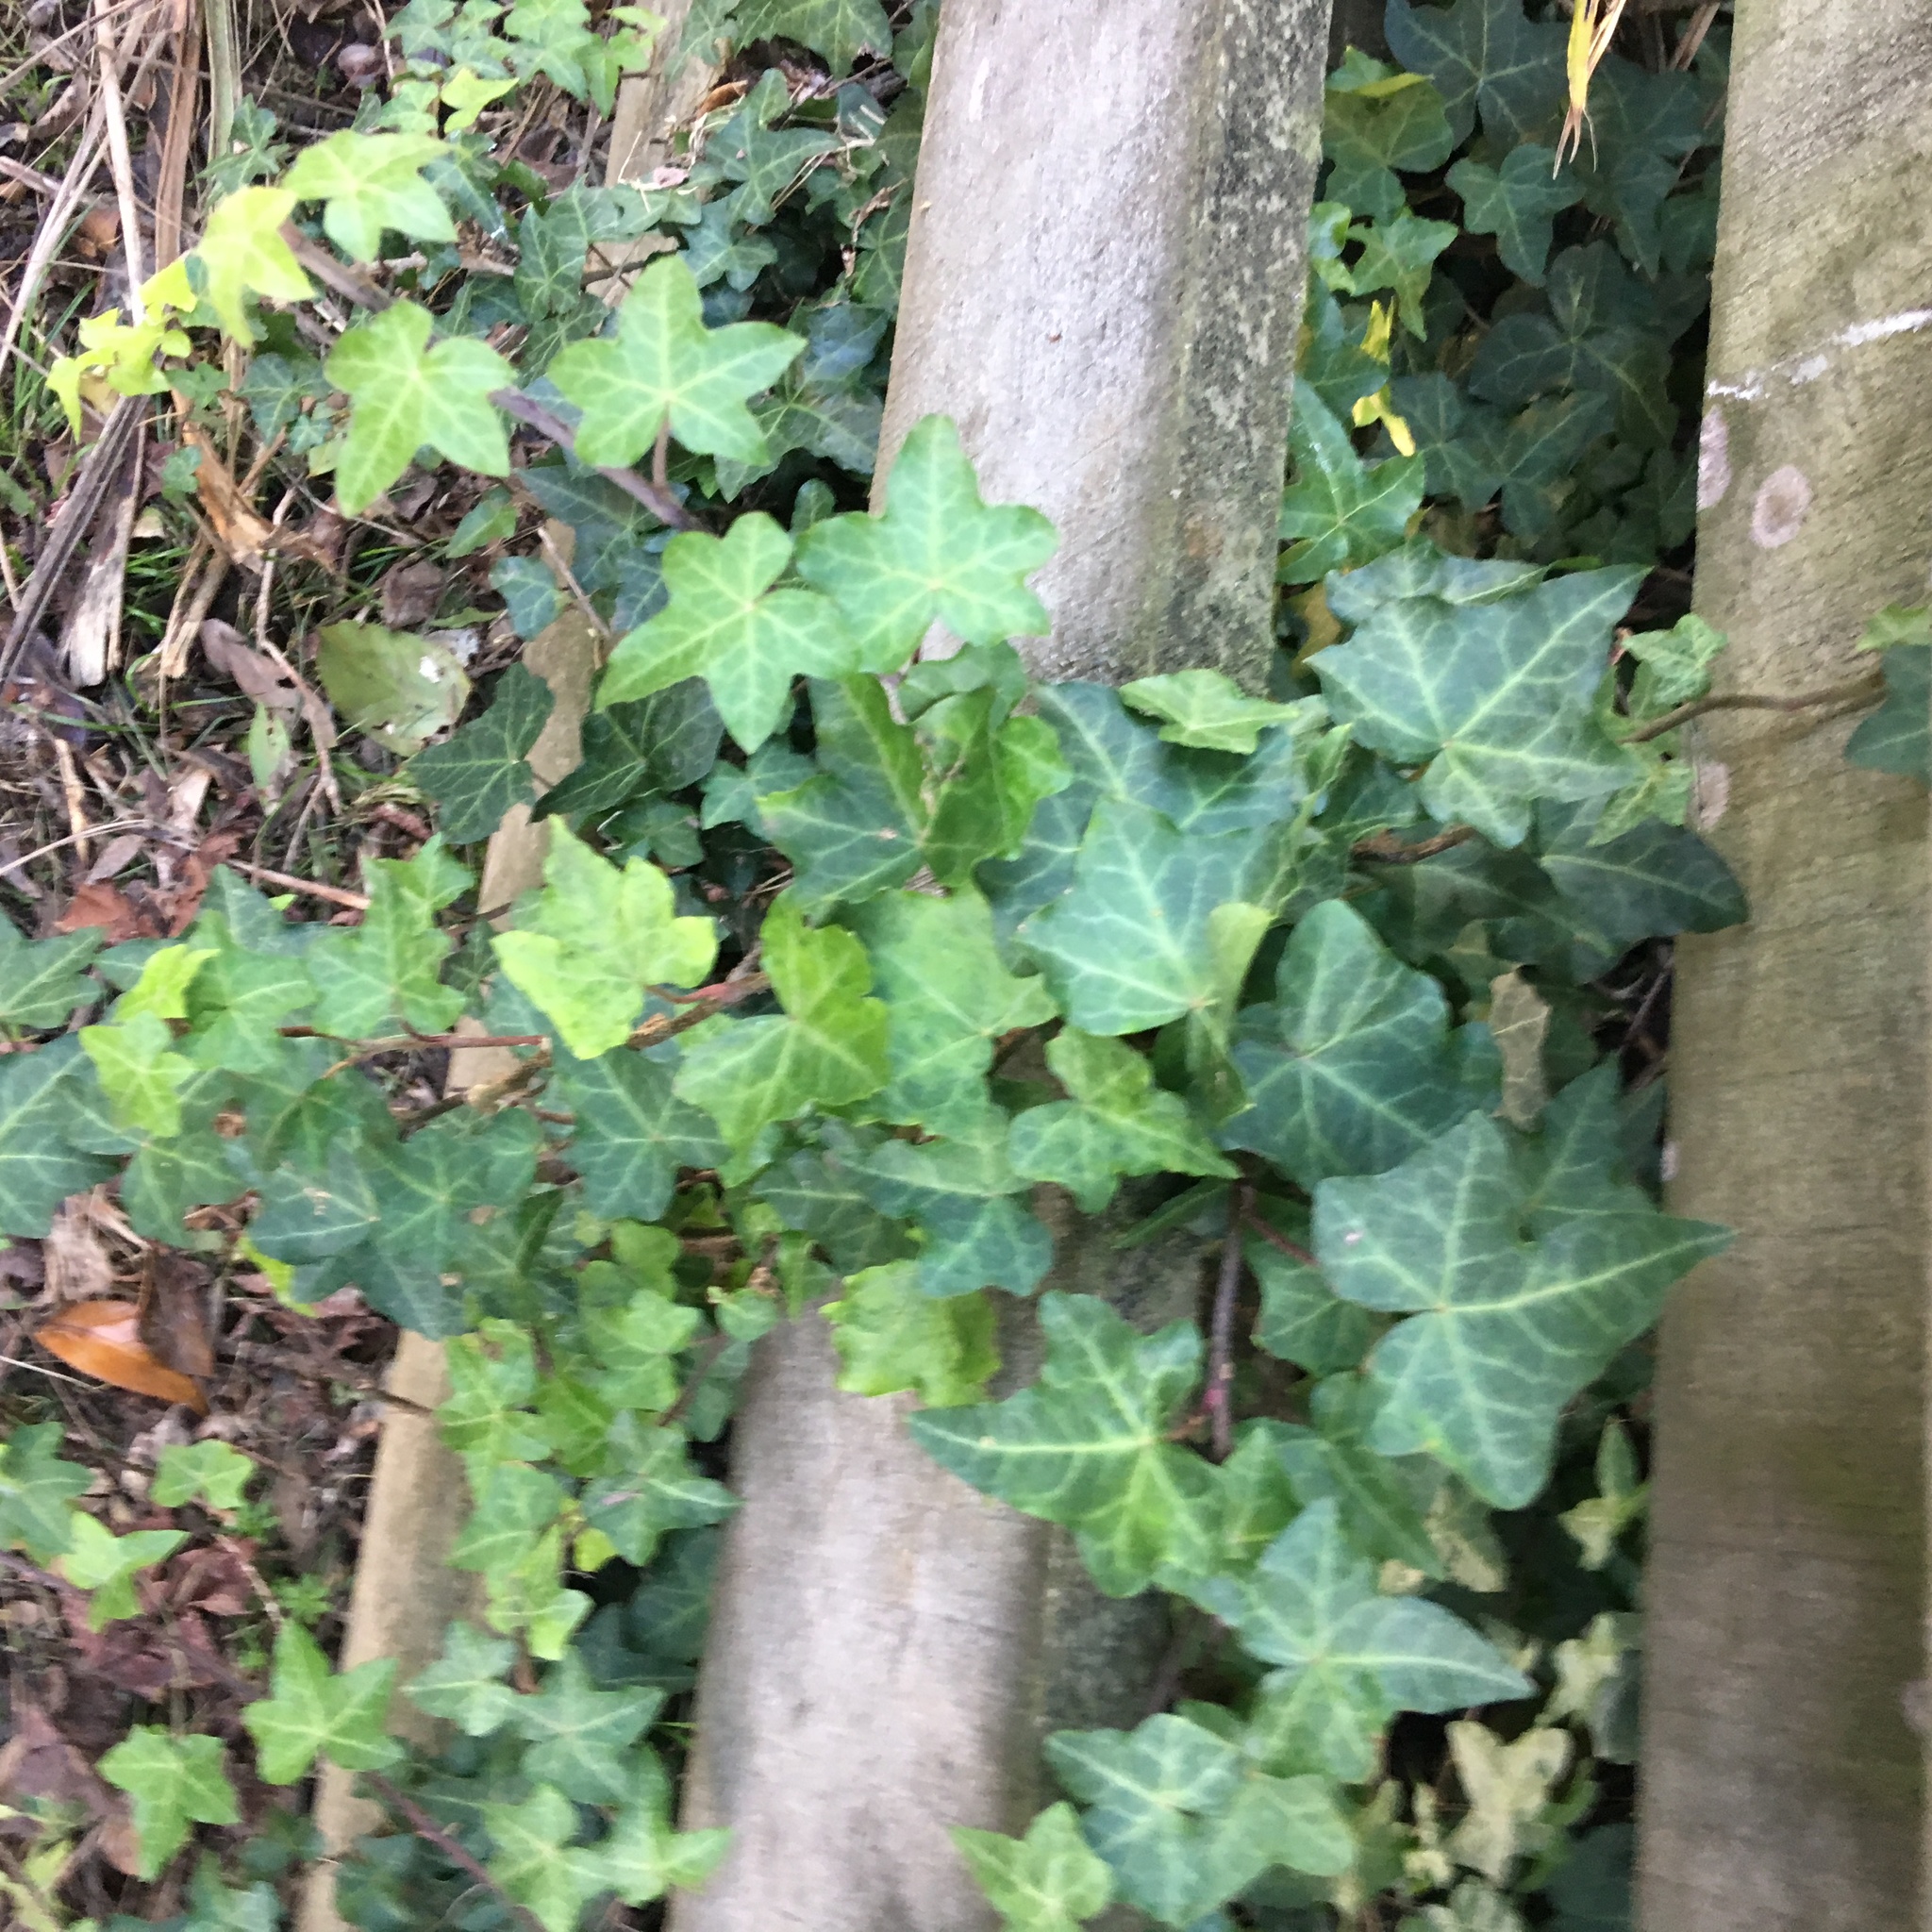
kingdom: Plantae
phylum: Tracheophyta
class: Magnoliopsida
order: Apiales
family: Araliaceae
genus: Hedera
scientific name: Hedera helix
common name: Ivy
